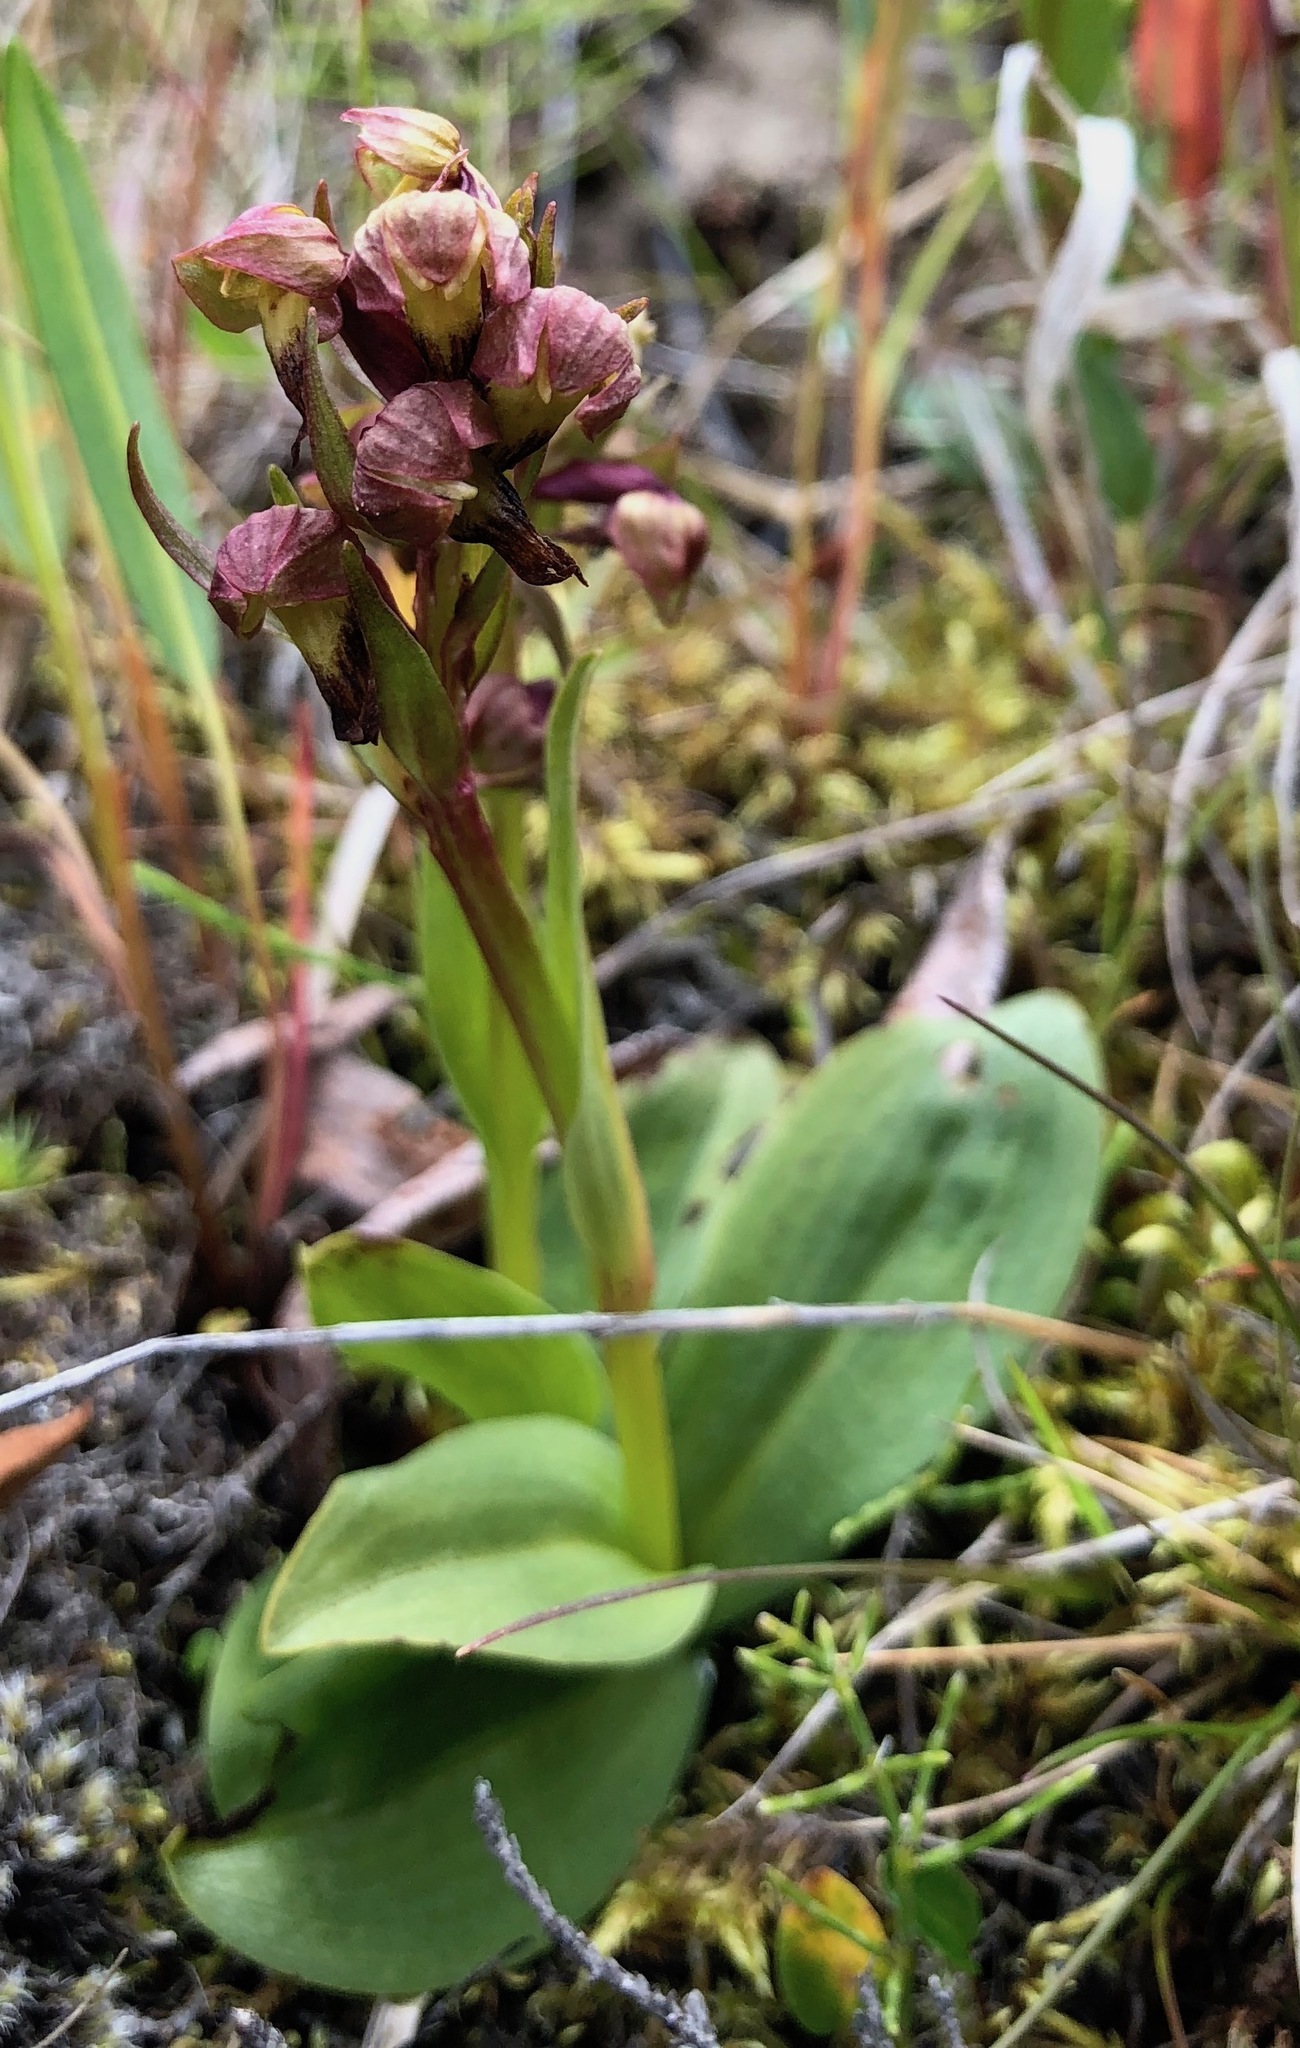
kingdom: Plantae
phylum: Tracheophyta
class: Liliopsida
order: Asparagales
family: Orchidaceae
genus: Dactylorhiza
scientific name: Dactylorhiza viridis
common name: Longbract frog orchid
